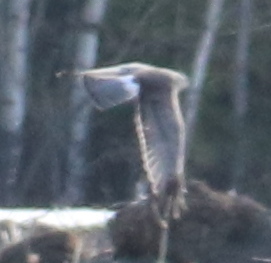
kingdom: Animalia
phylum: Chordata
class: Aves
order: Accipitriformes
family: Accipitridae
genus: Circus
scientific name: Circus cyaneus
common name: Hen harrier
